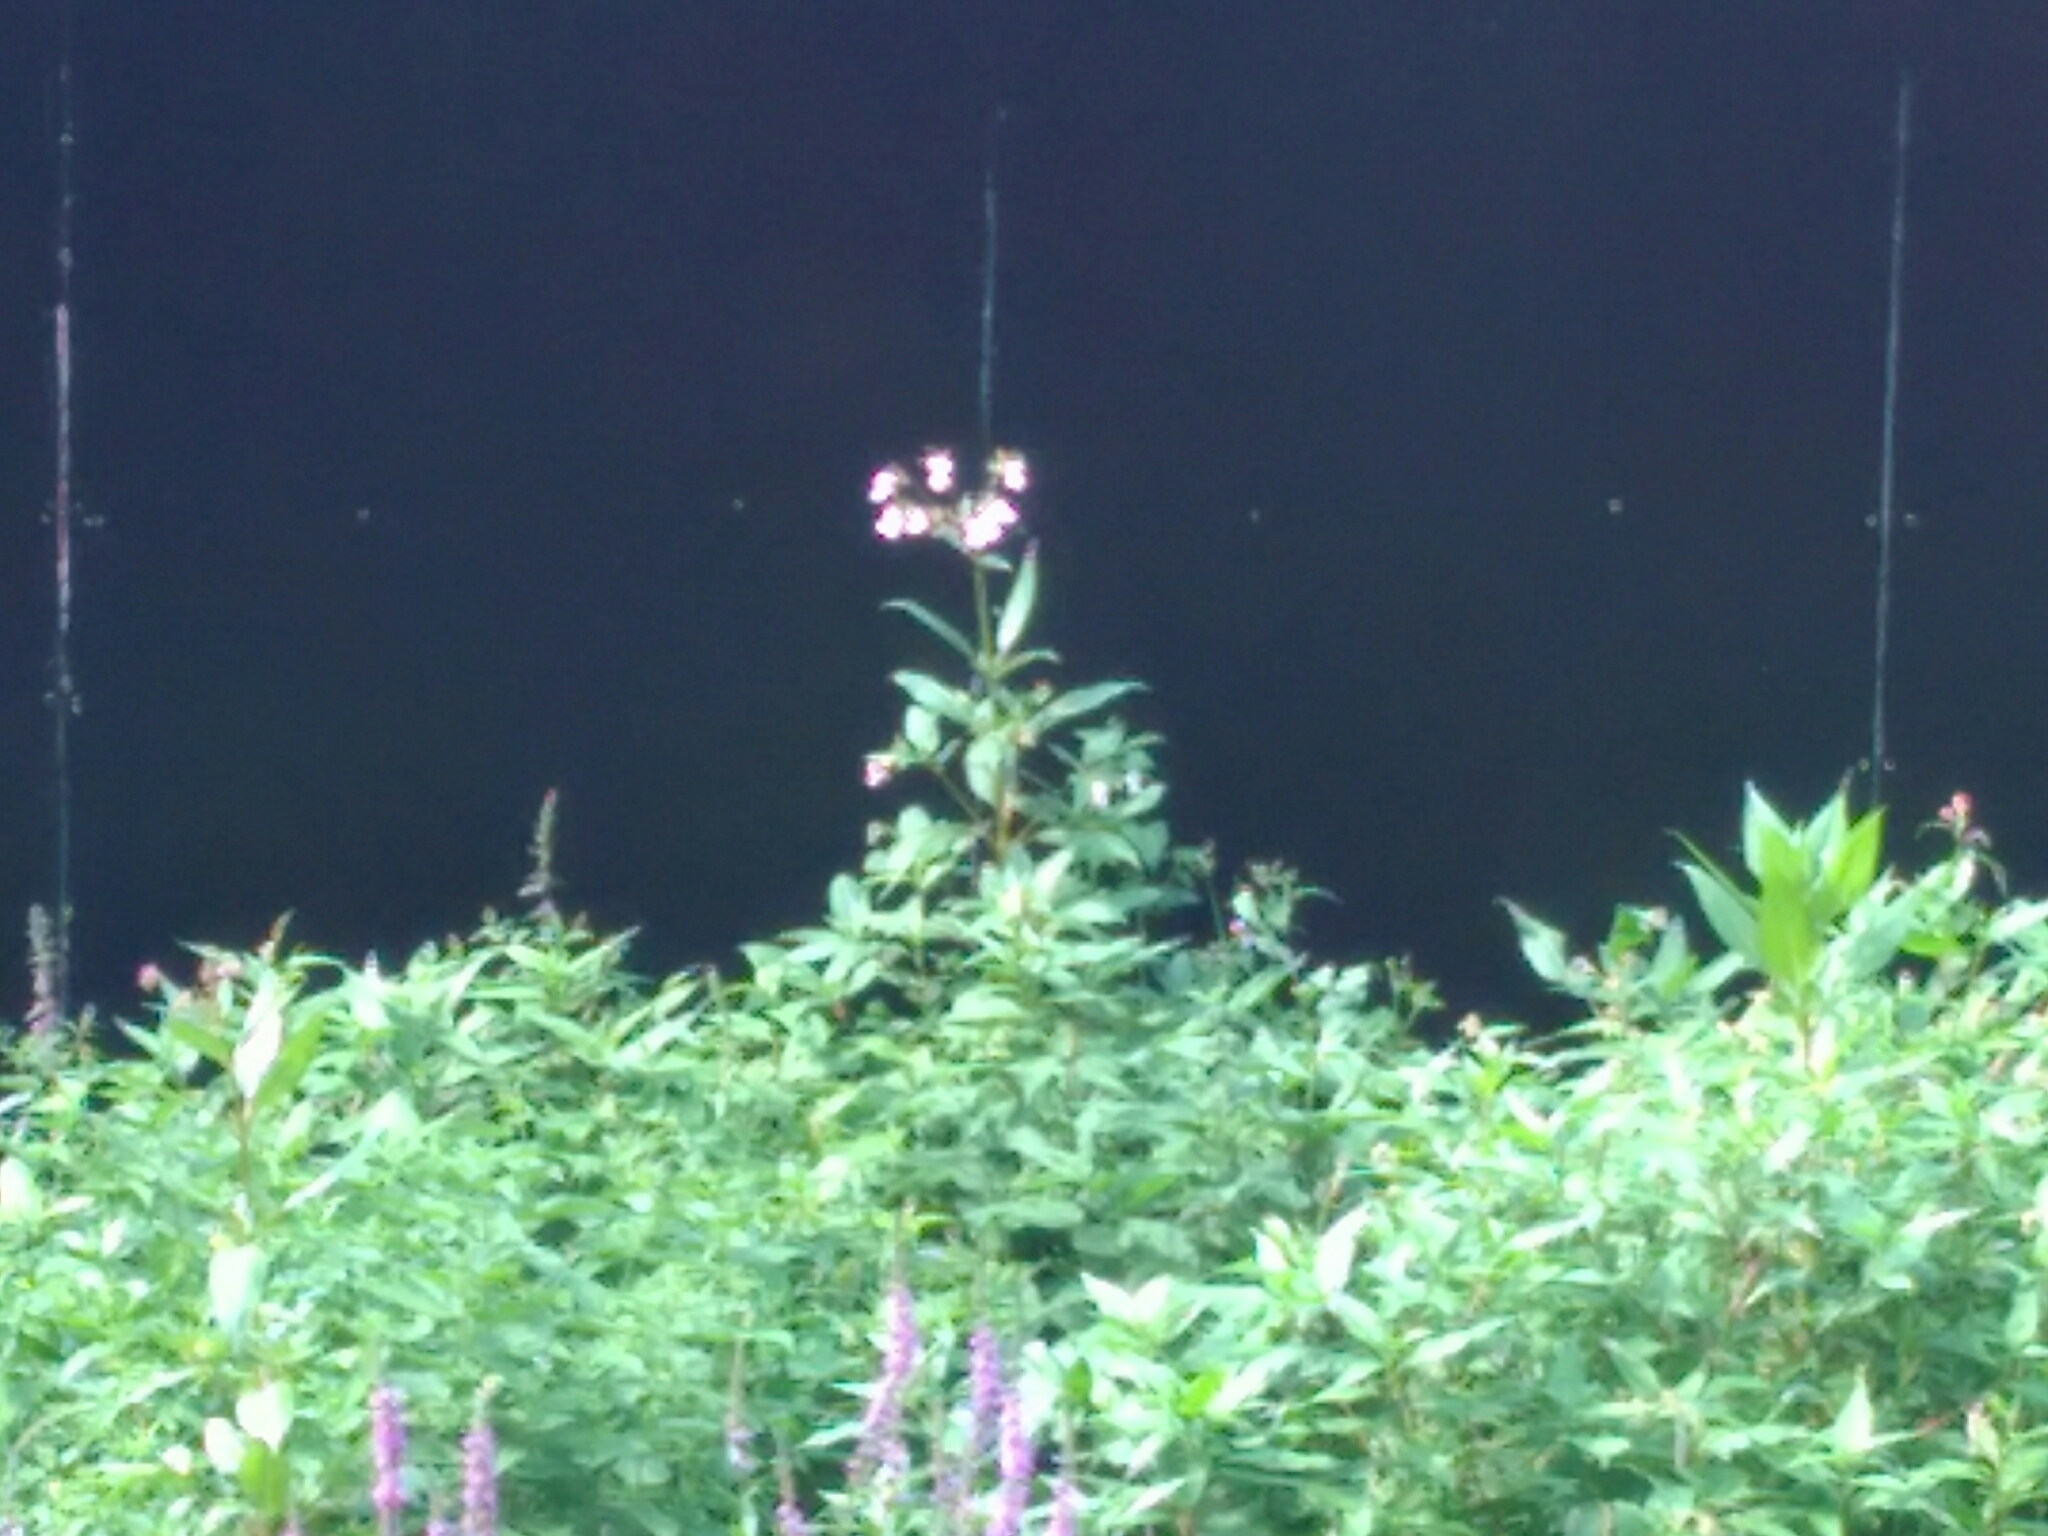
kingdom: Plantae
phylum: Tracheophyta
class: Magnoliopsida
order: Ericales
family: Balsaminaceae
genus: Impatiens
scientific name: Impatiens glandulifera
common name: Himalayan balsam
